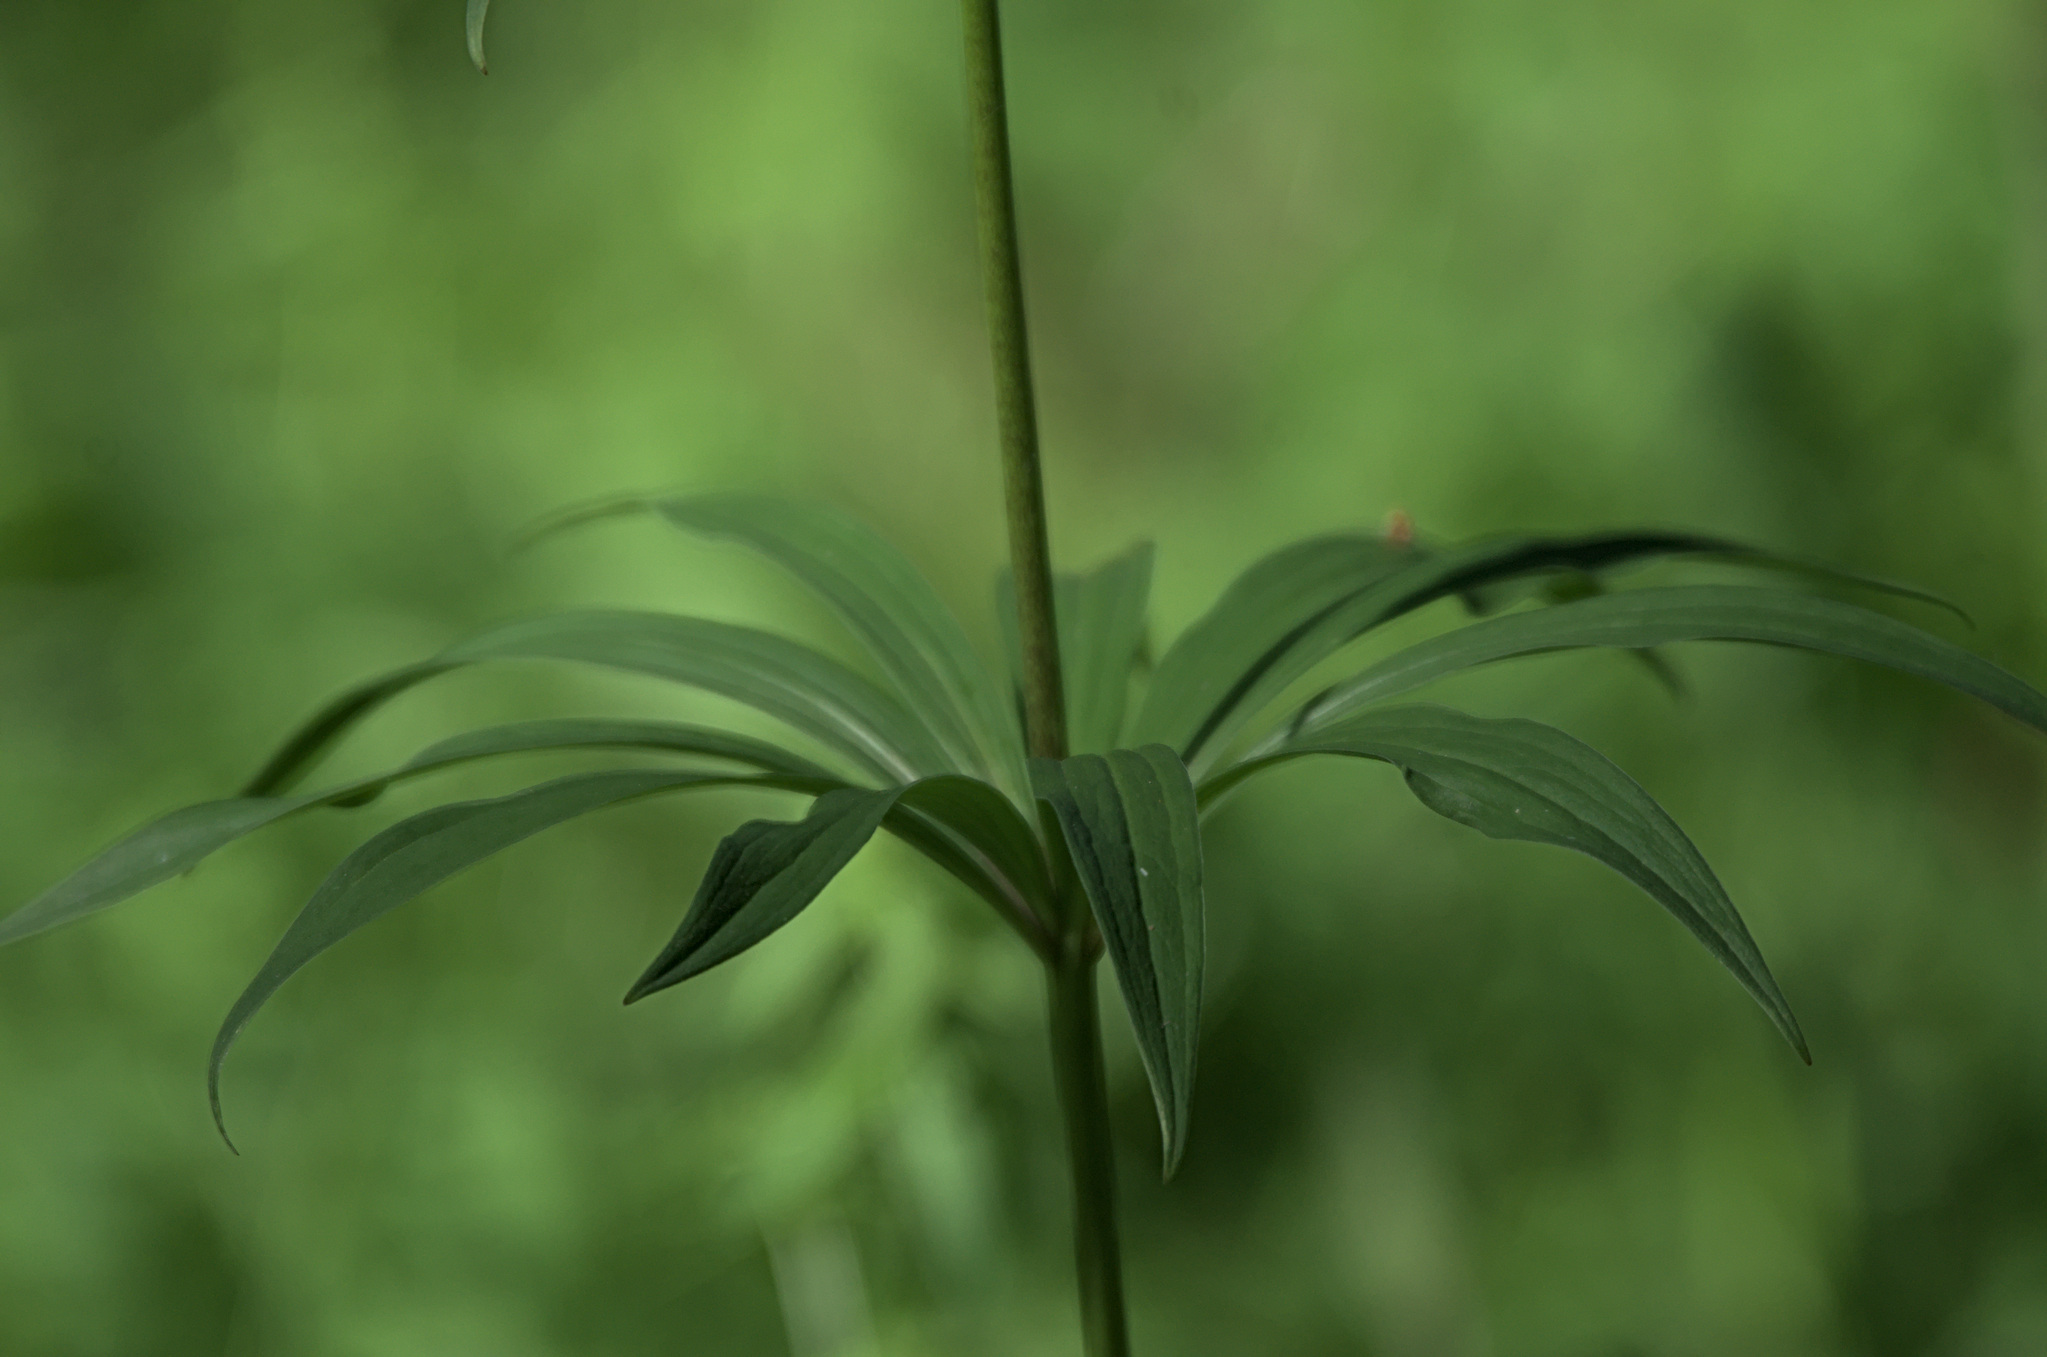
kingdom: Plantae
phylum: Tracheophyta
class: Liliopsida
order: Liliales
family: Liliaceae
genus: Lilium
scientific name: Lilium martagon
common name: Martagon lily
